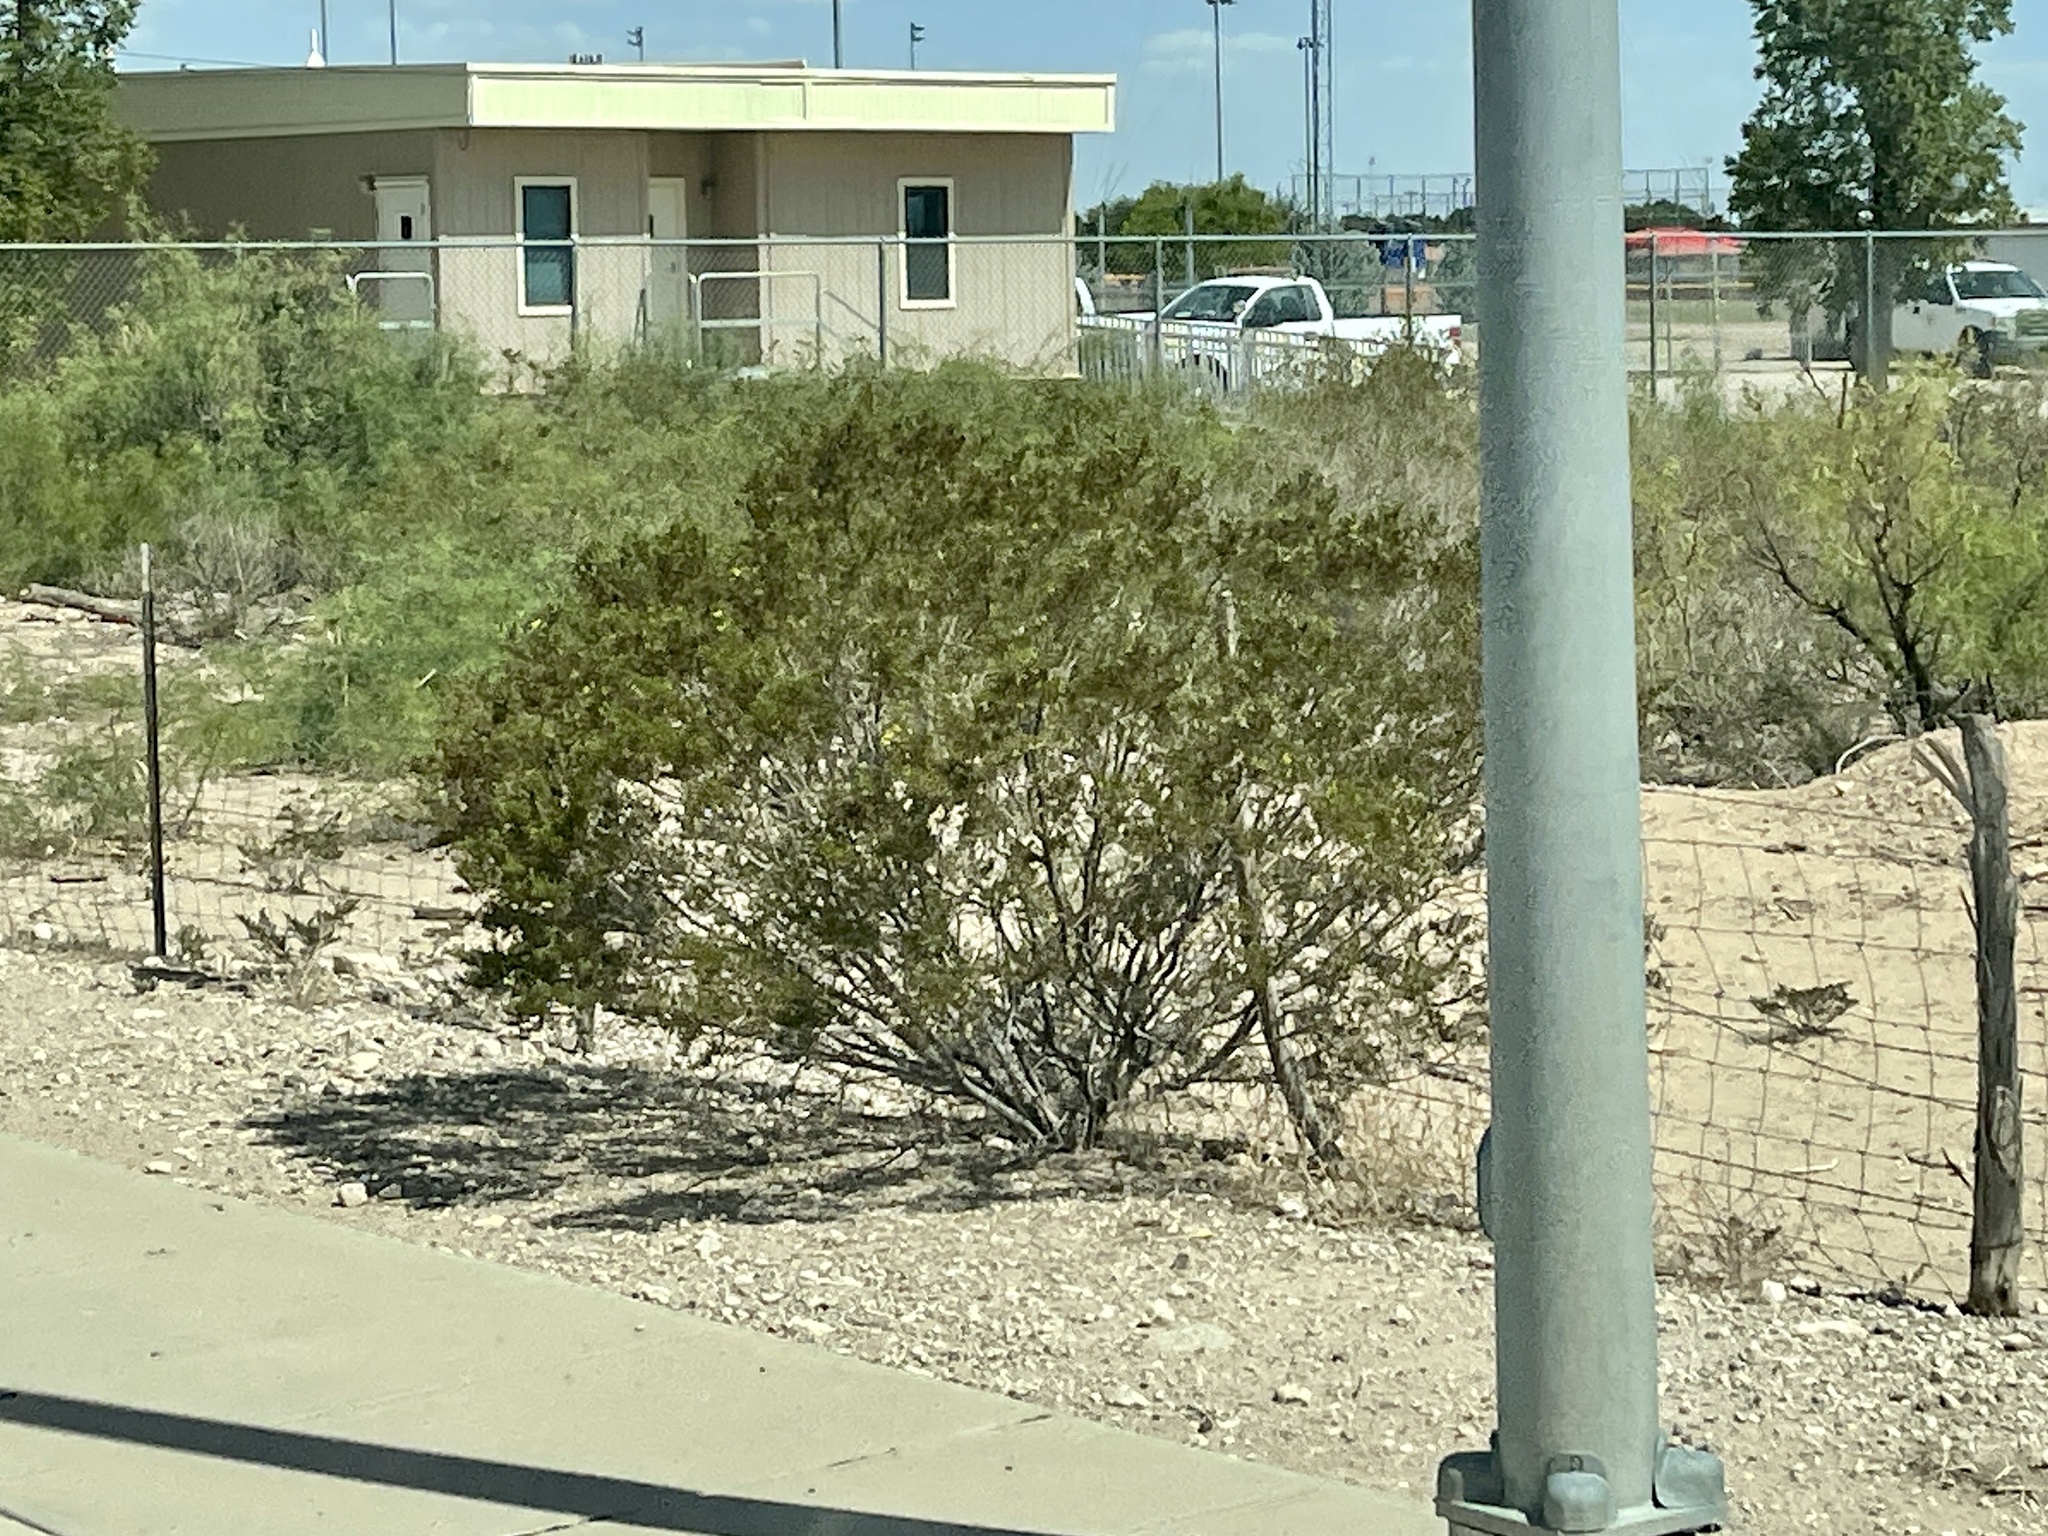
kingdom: Plantae
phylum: Tracheophyta
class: Magnoliopsida
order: Zygophyllales
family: Zygophyllaceae
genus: Larrea
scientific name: Larrea tridentata
